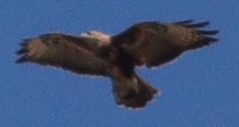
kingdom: Animalia
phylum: Chordata
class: Aves
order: Accipitriformes
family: Accipitridae
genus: Buteo
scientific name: Buteo buteo
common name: Common buzzard
